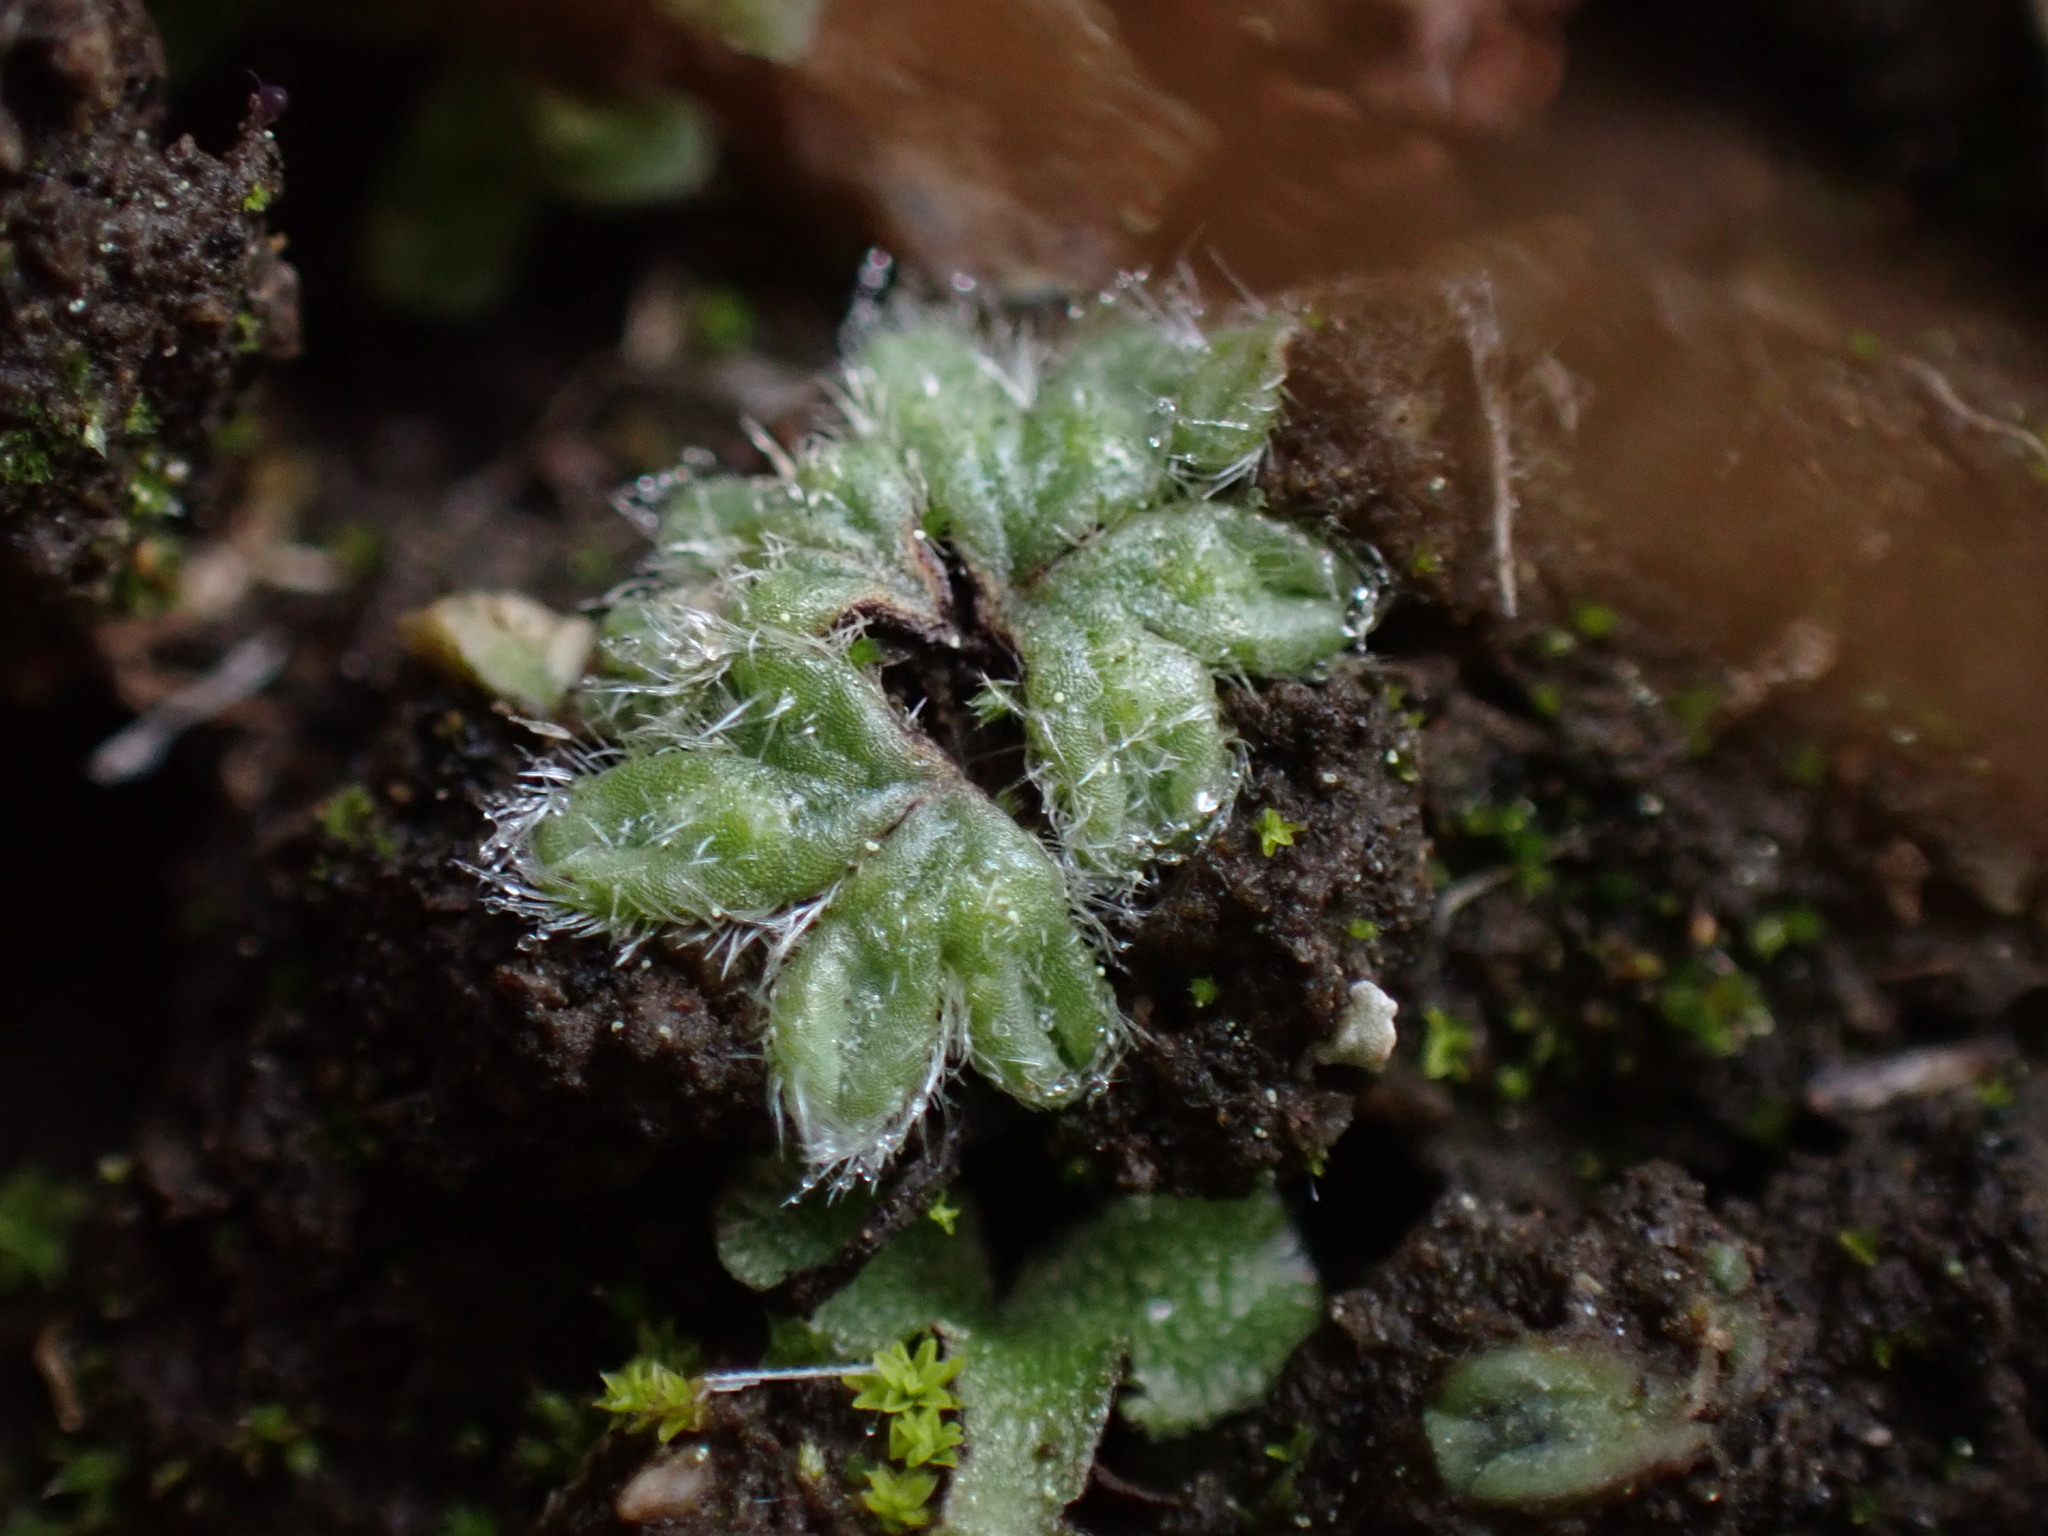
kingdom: Plantae
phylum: Marchantiophyta
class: Marchantiopsida
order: Marchantiales
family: Ricciaceae
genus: Riccia
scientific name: Riccia trichocarpa
